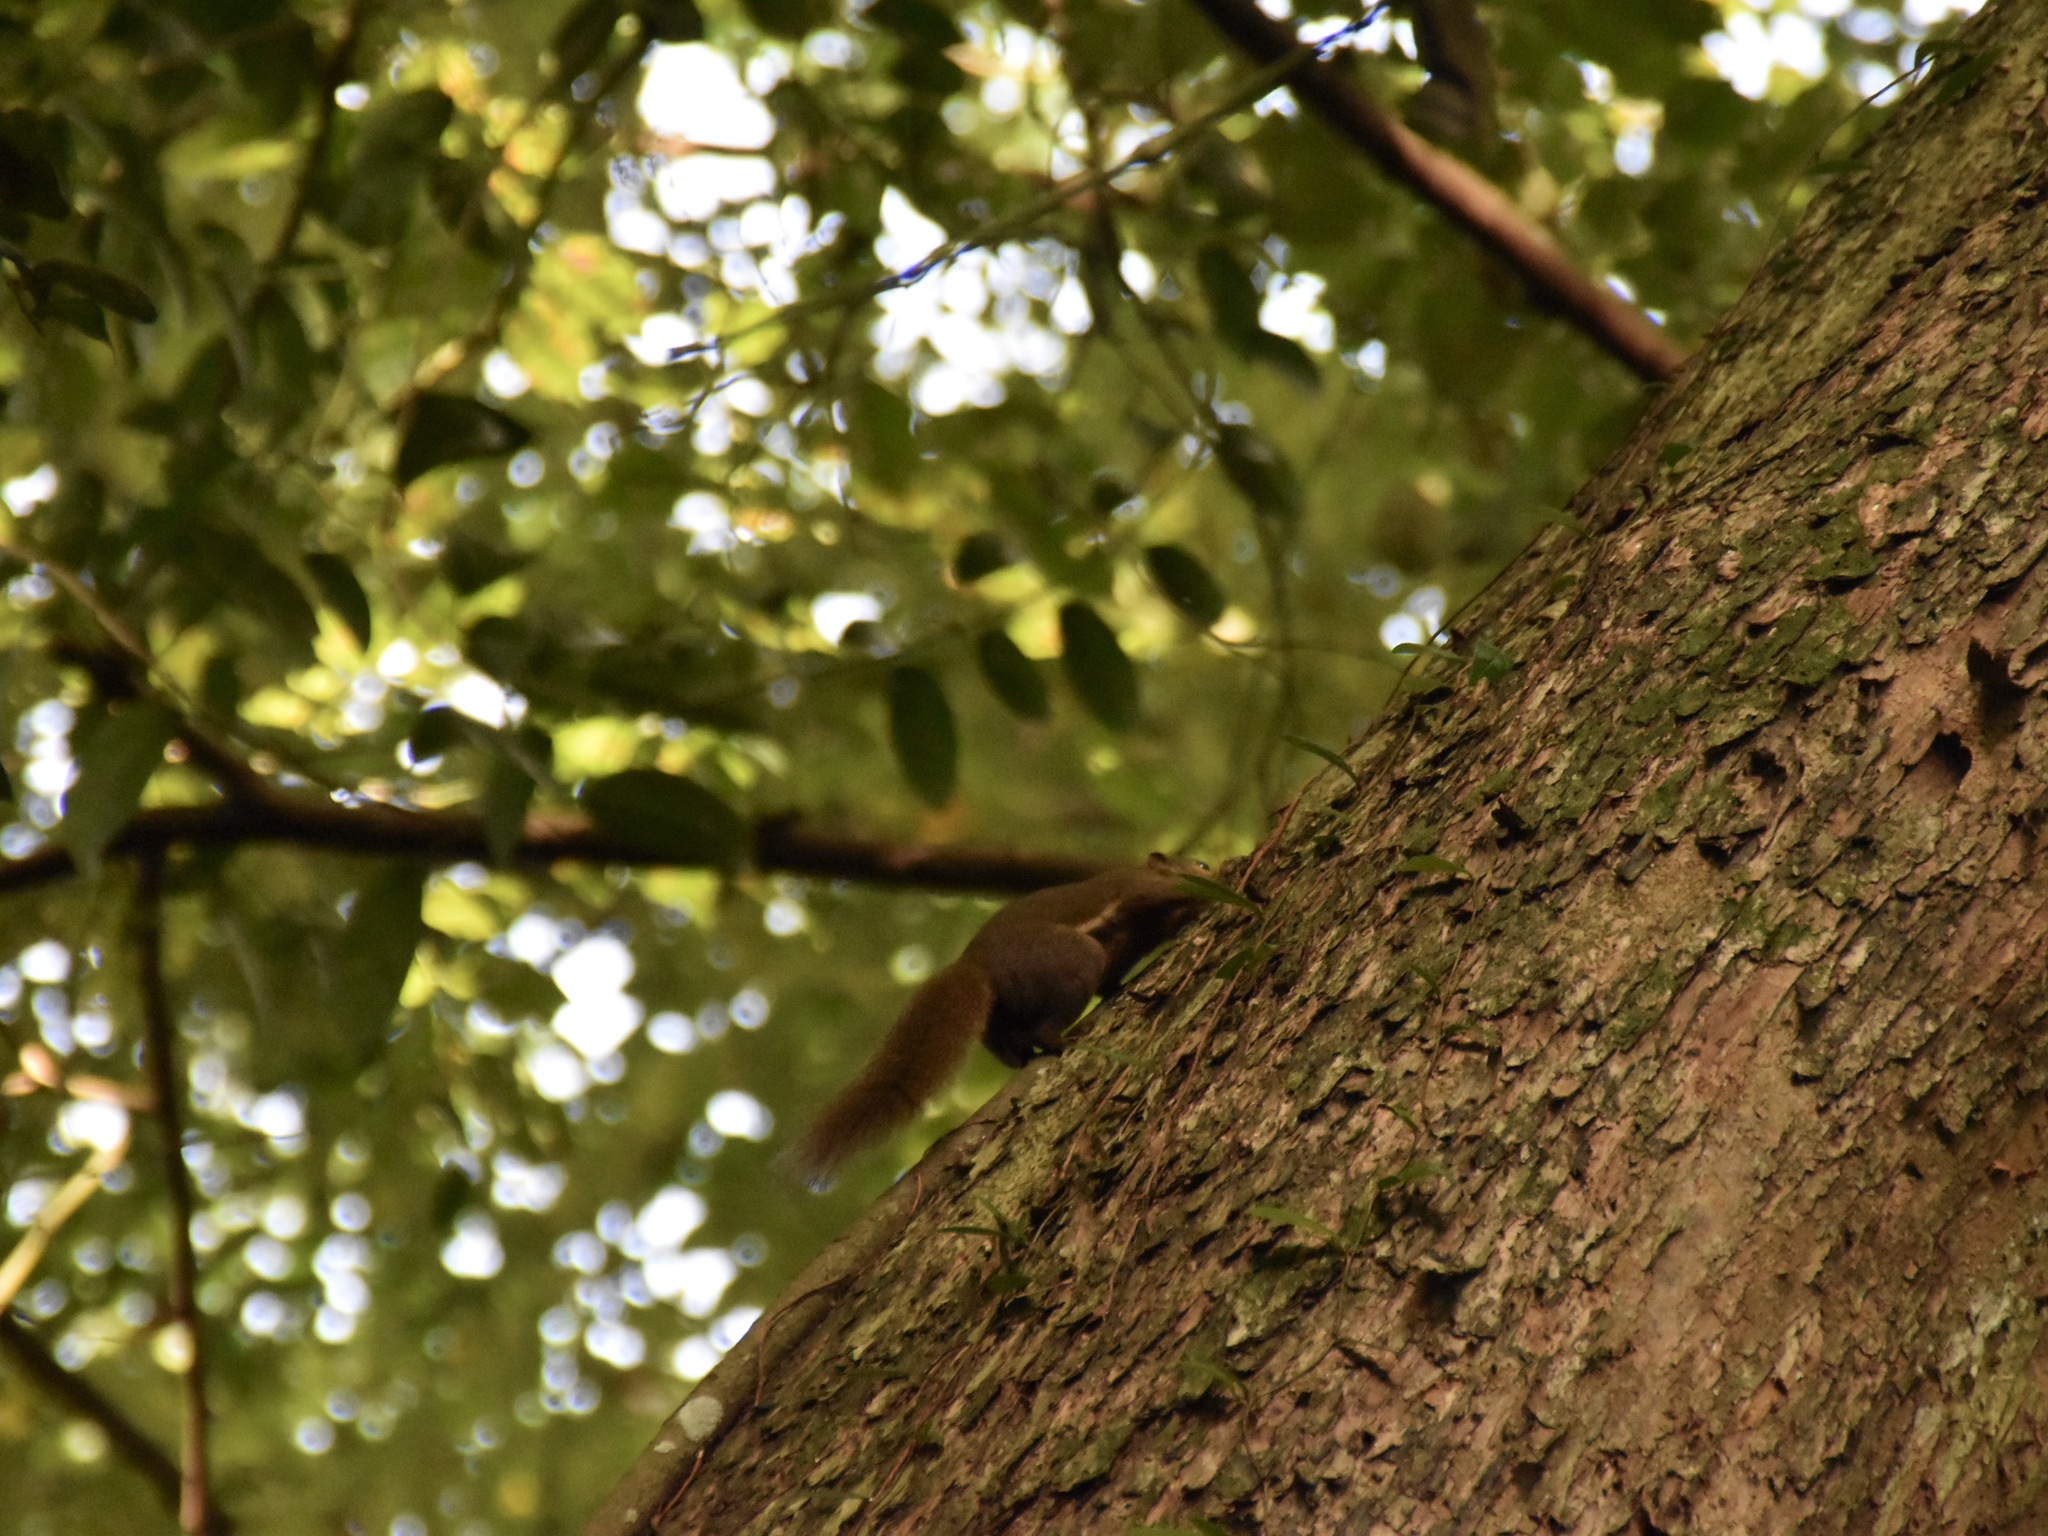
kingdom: Animalia
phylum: Chordata
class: Mammalia
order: Rodentia
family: Sciuridae
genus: Callosciurus
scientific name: Callosciurus notatus
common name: Plantain squirrel
